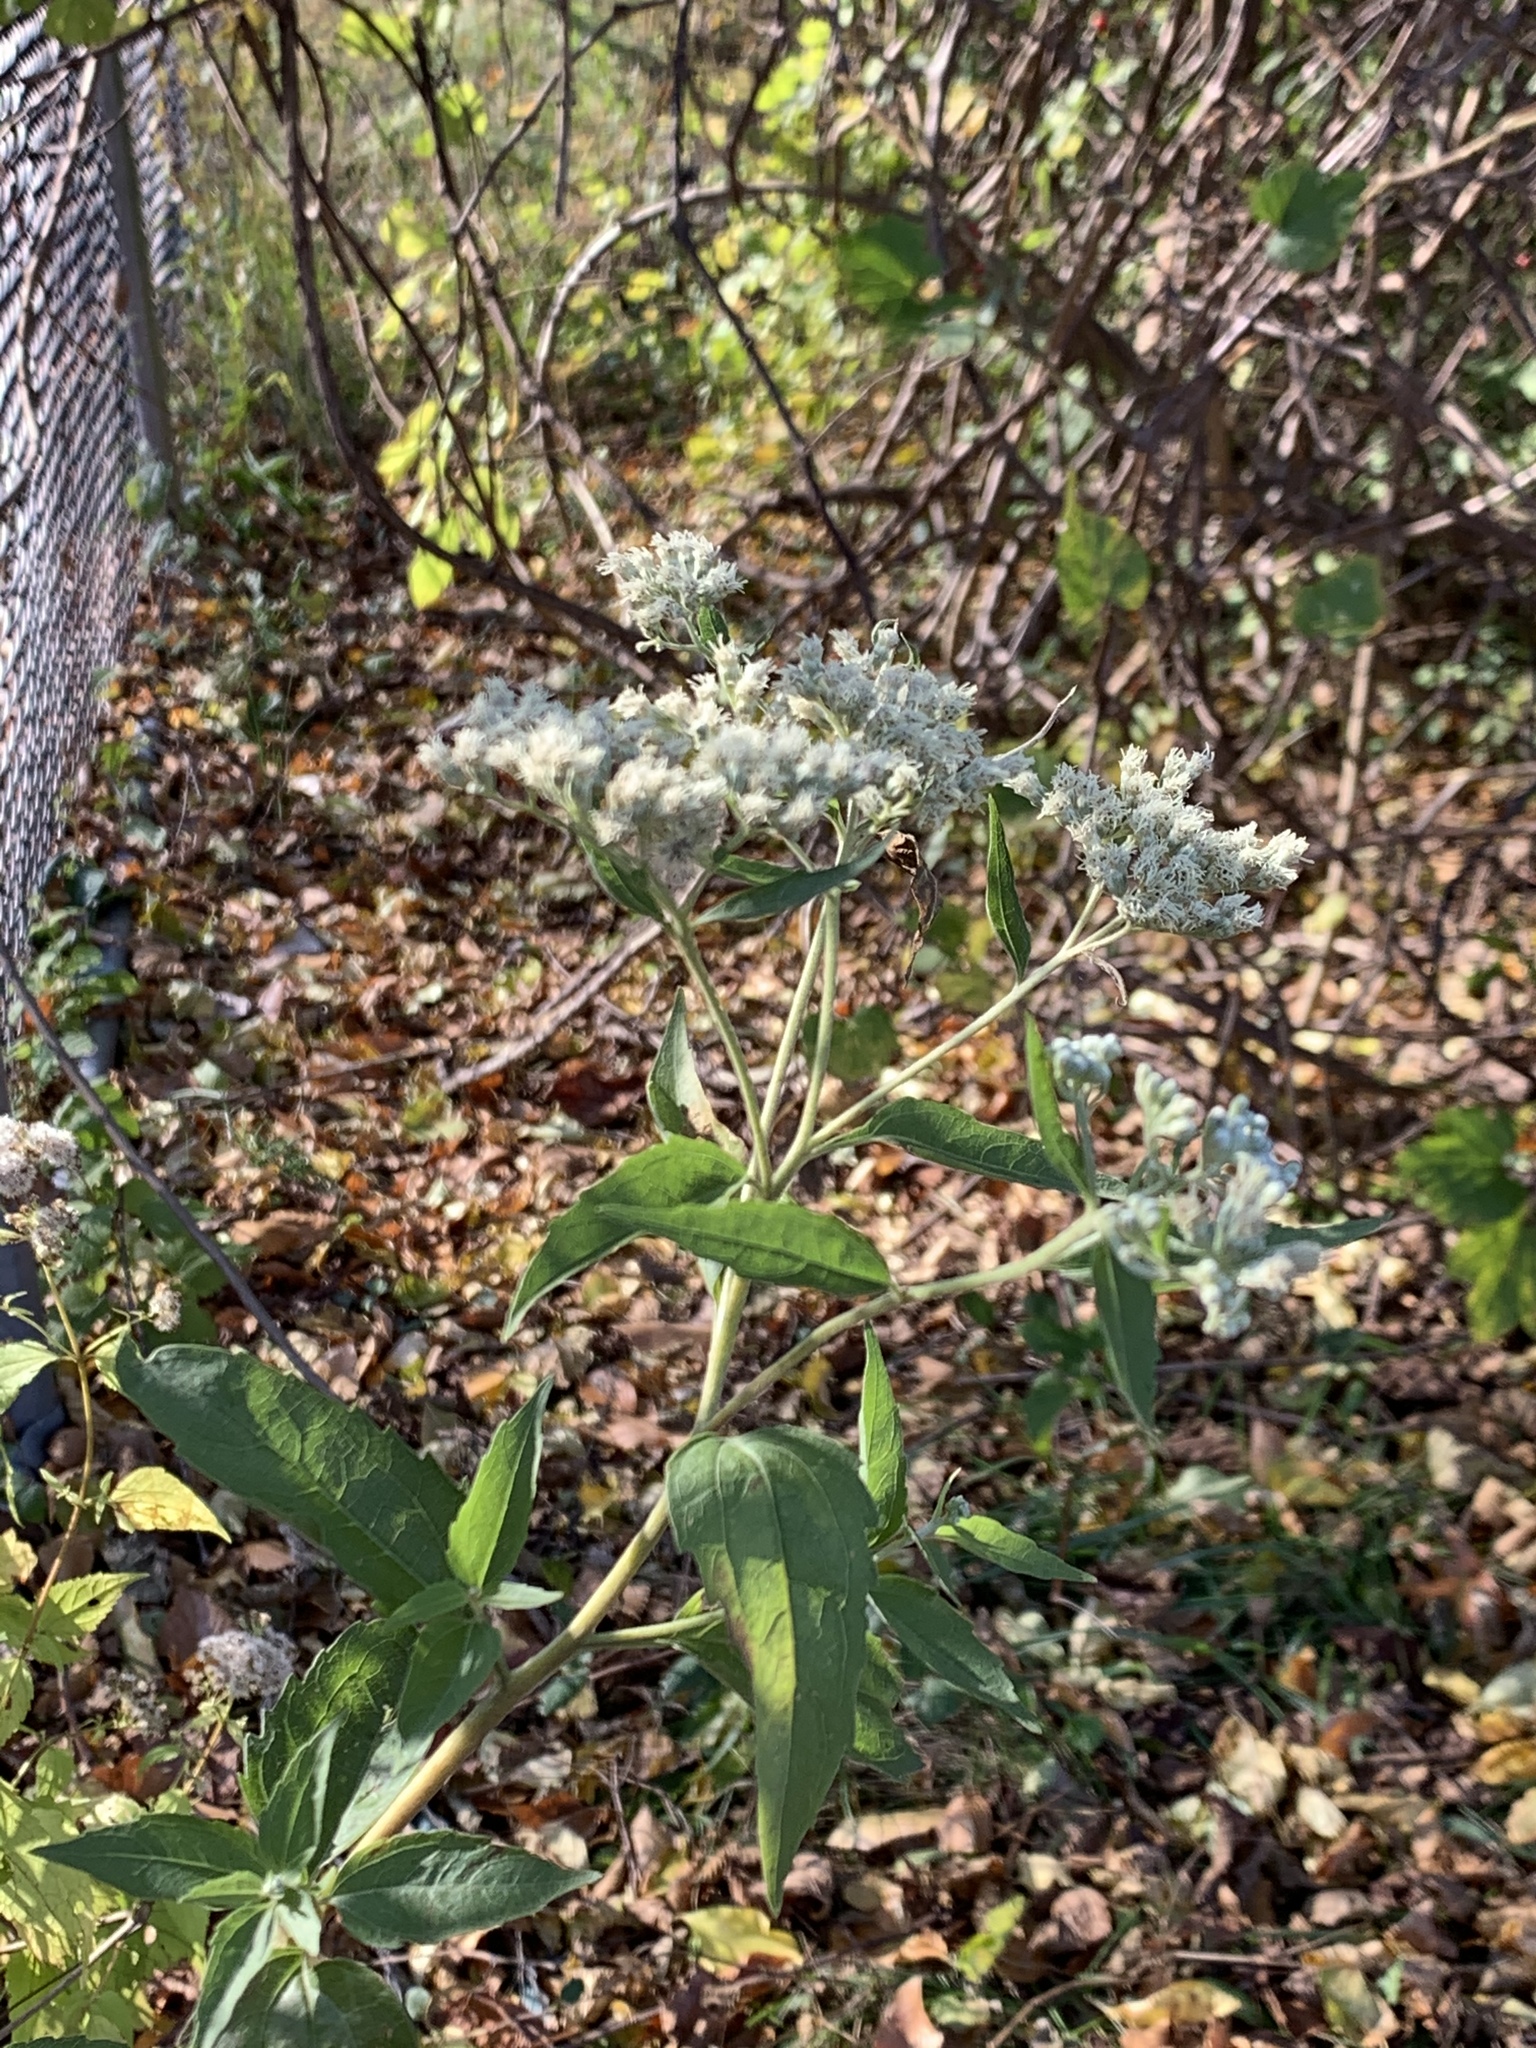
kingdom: Plantae
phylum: Tracheophyta
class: Magnoliopsida
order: Asterales
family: Asteraceae
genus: Eupatorium
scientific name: Eupatorium serotinum
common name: Late boneset
